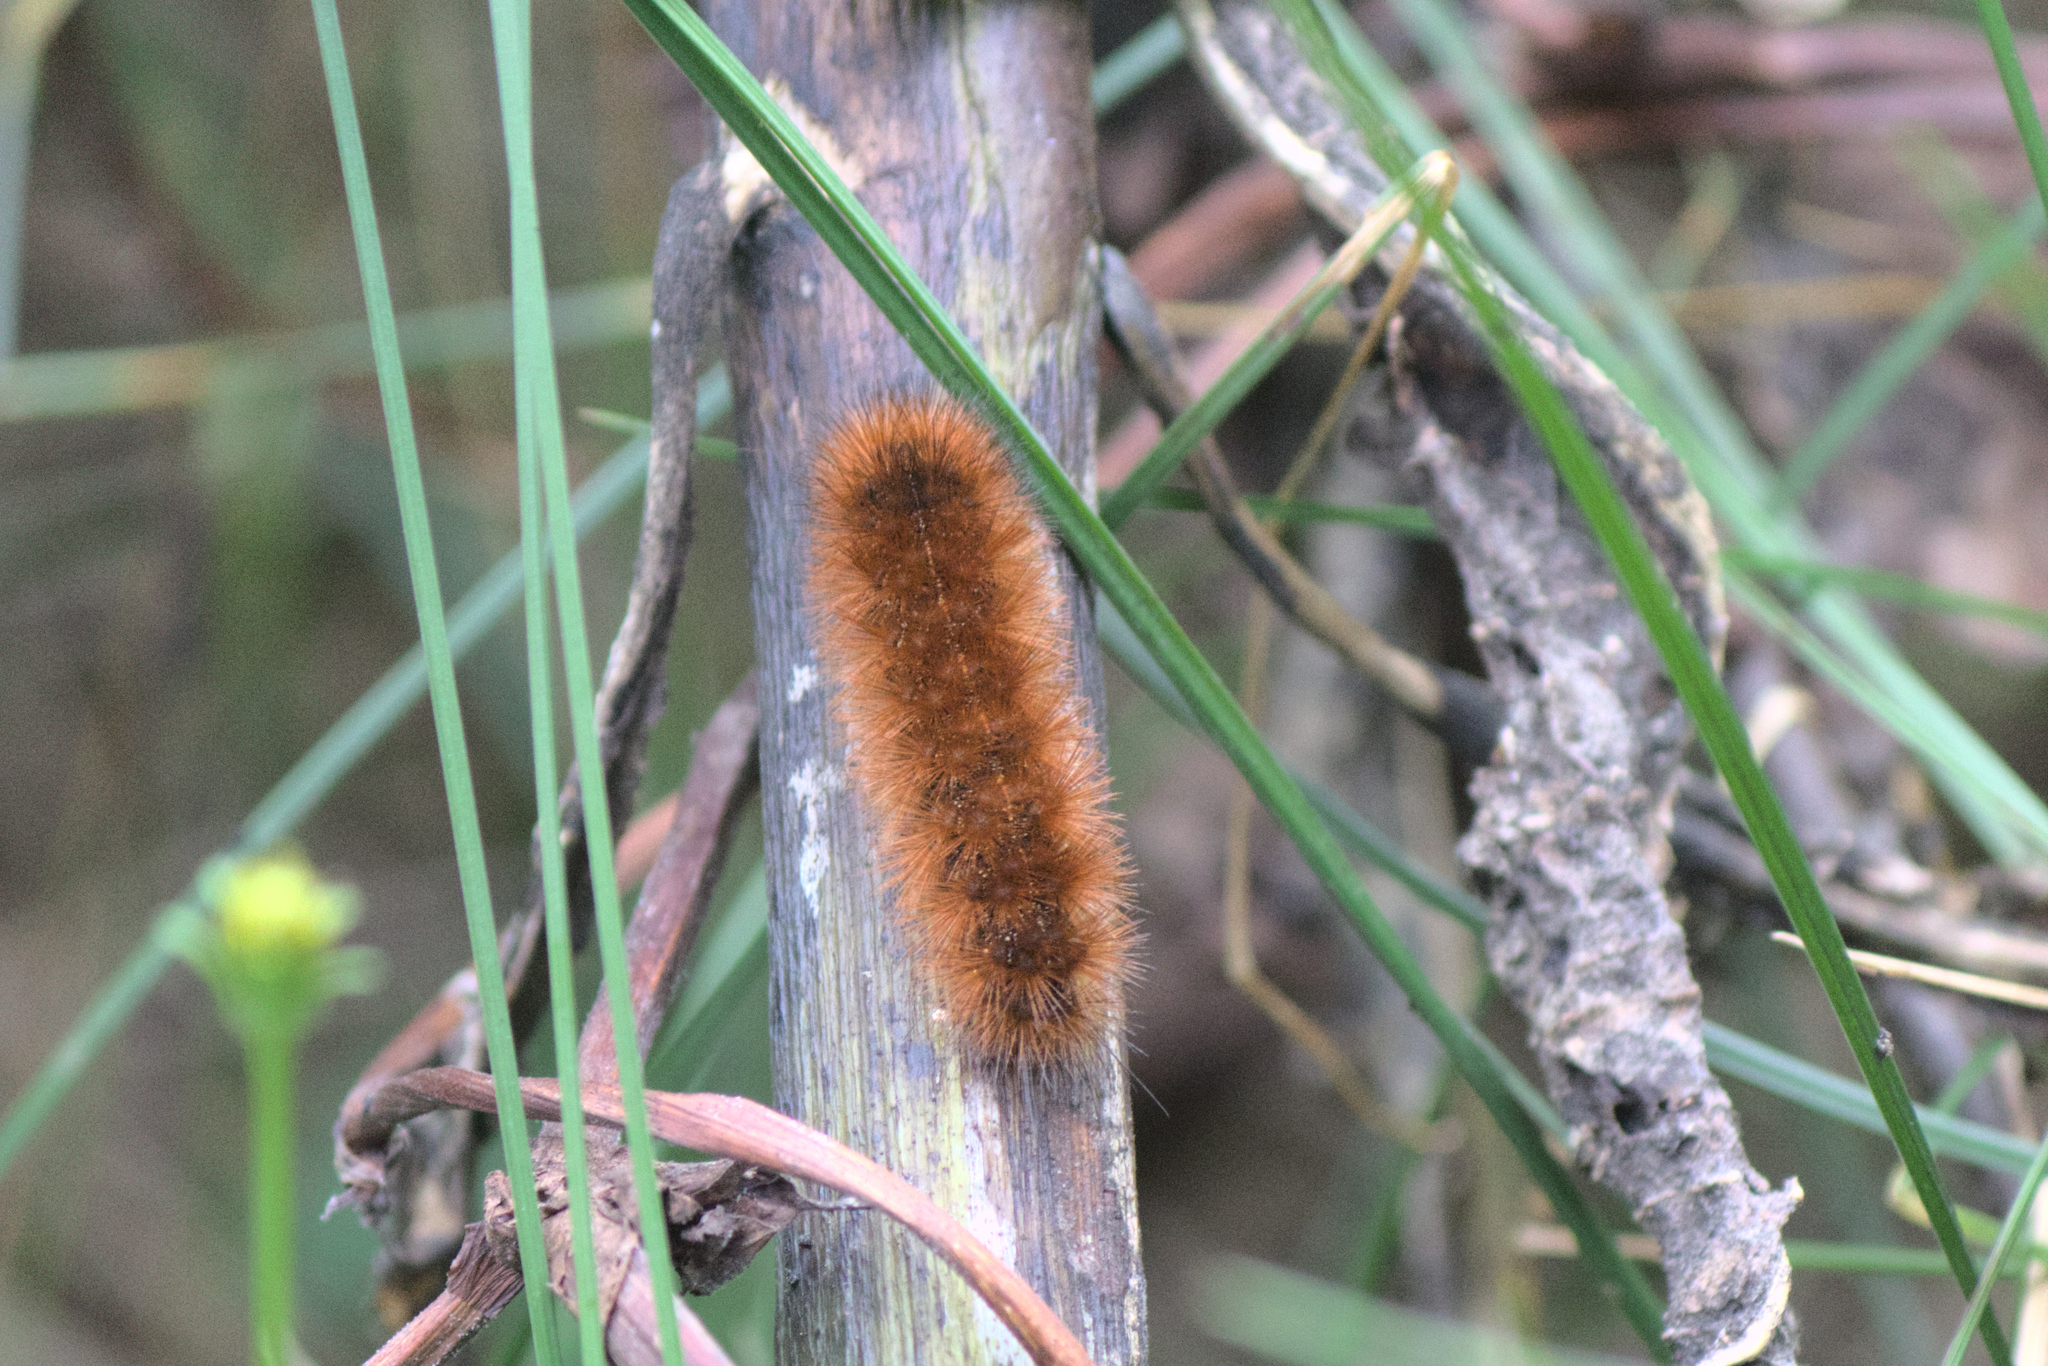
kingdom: Animalia
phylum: Arthropoda
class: Insecta
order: Lepidoptera
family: Erebidae
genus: Pyrrharctia
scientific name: Pyrrharctia isabella
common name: Isabella tiger moth
